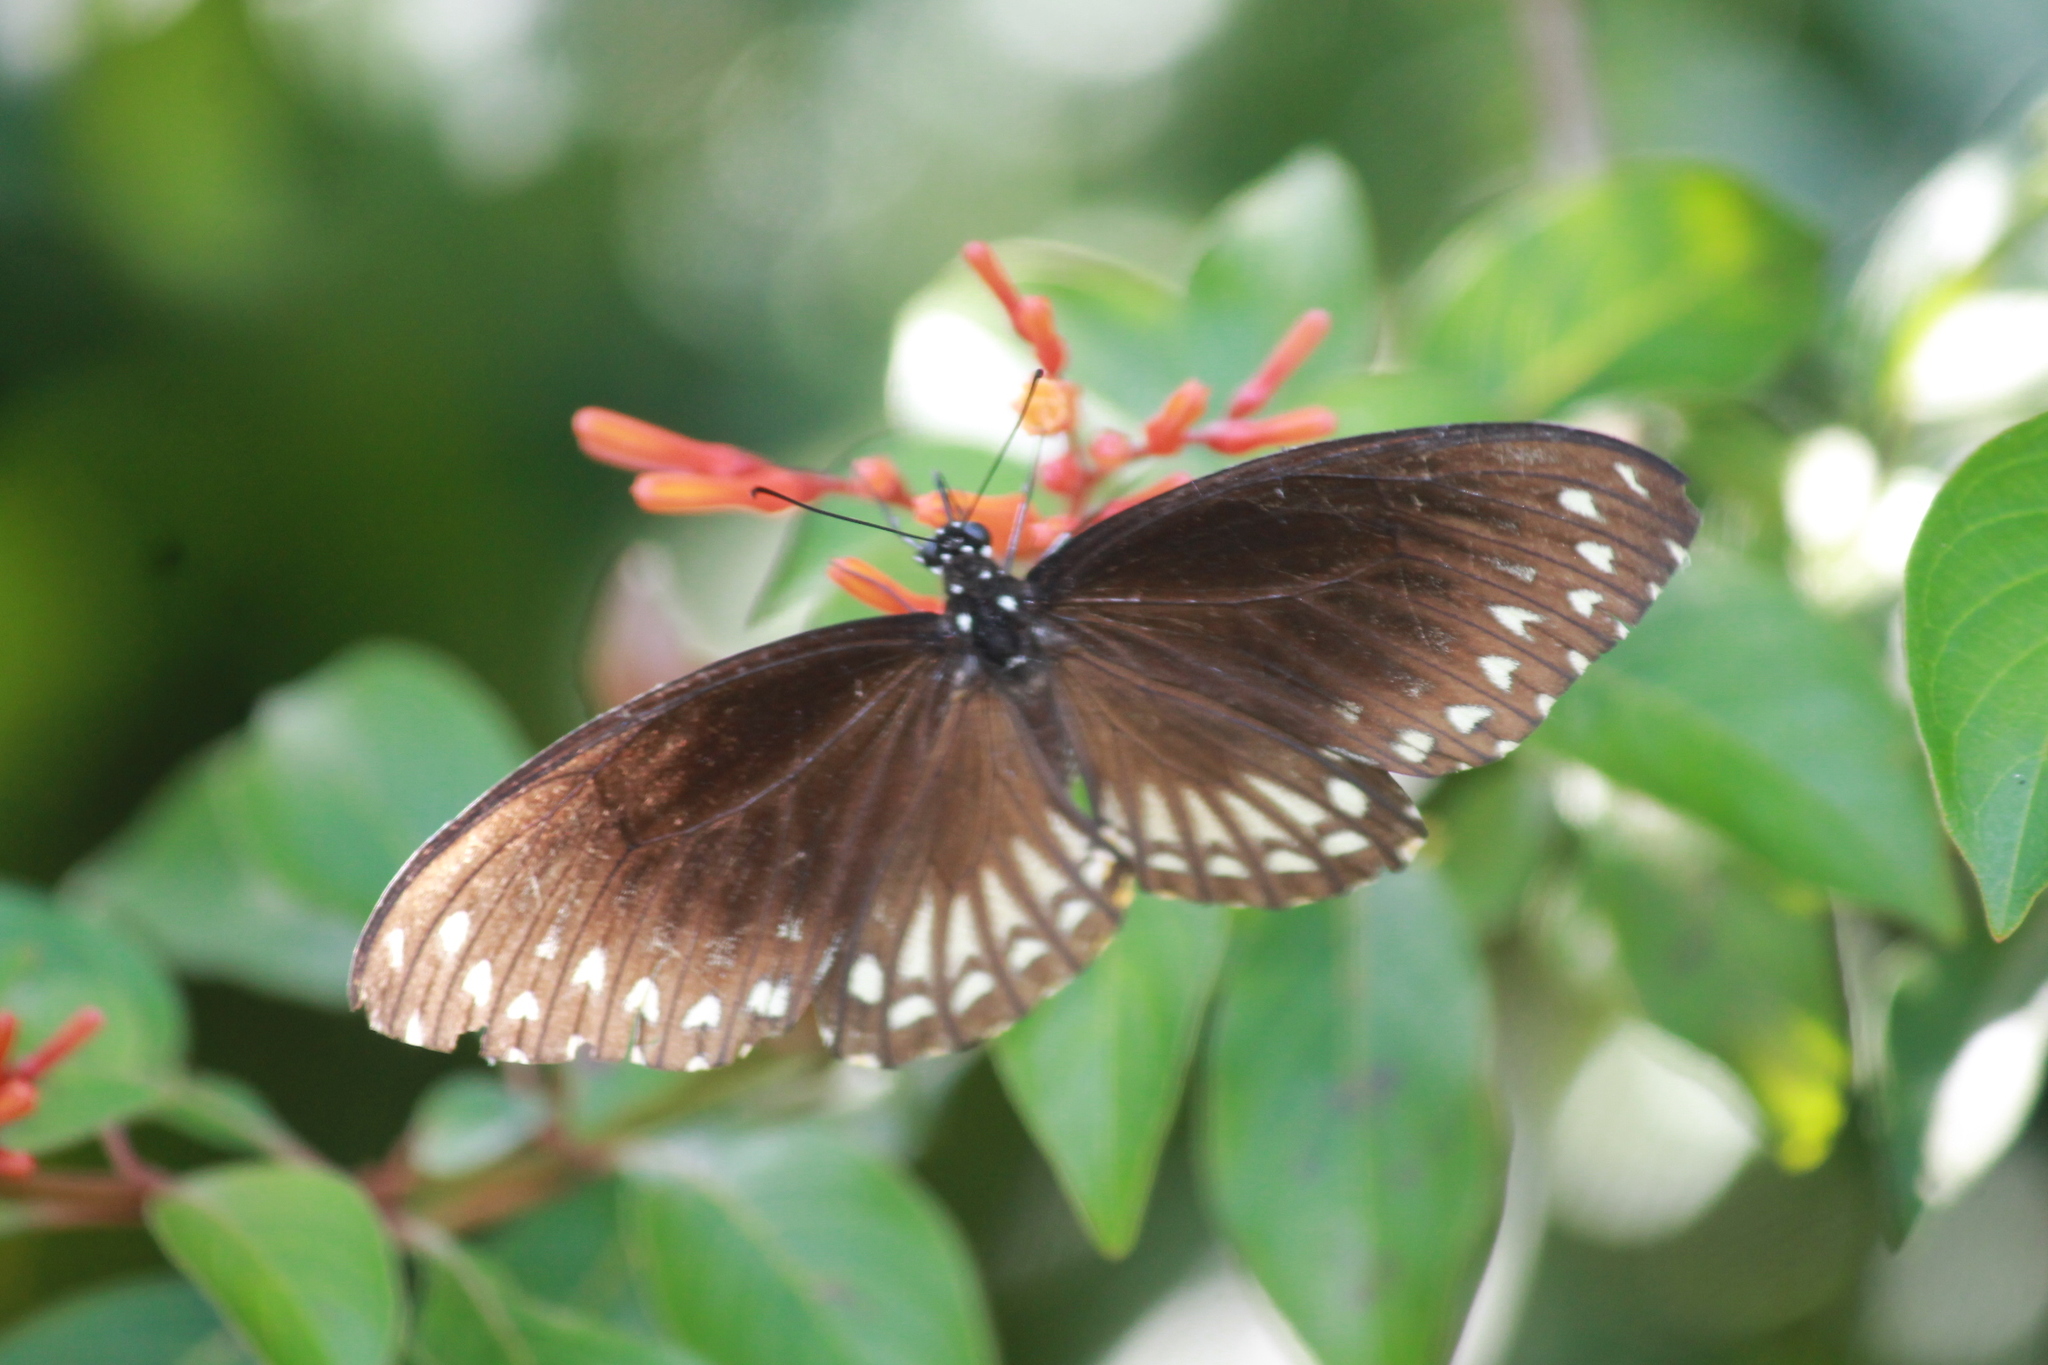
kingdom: Animalia
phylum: Arthropoda
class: Insecta
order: Lepidoptera
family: Papilionidae
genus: Chilasa
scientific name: Chilasa clytia
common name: Common mime
